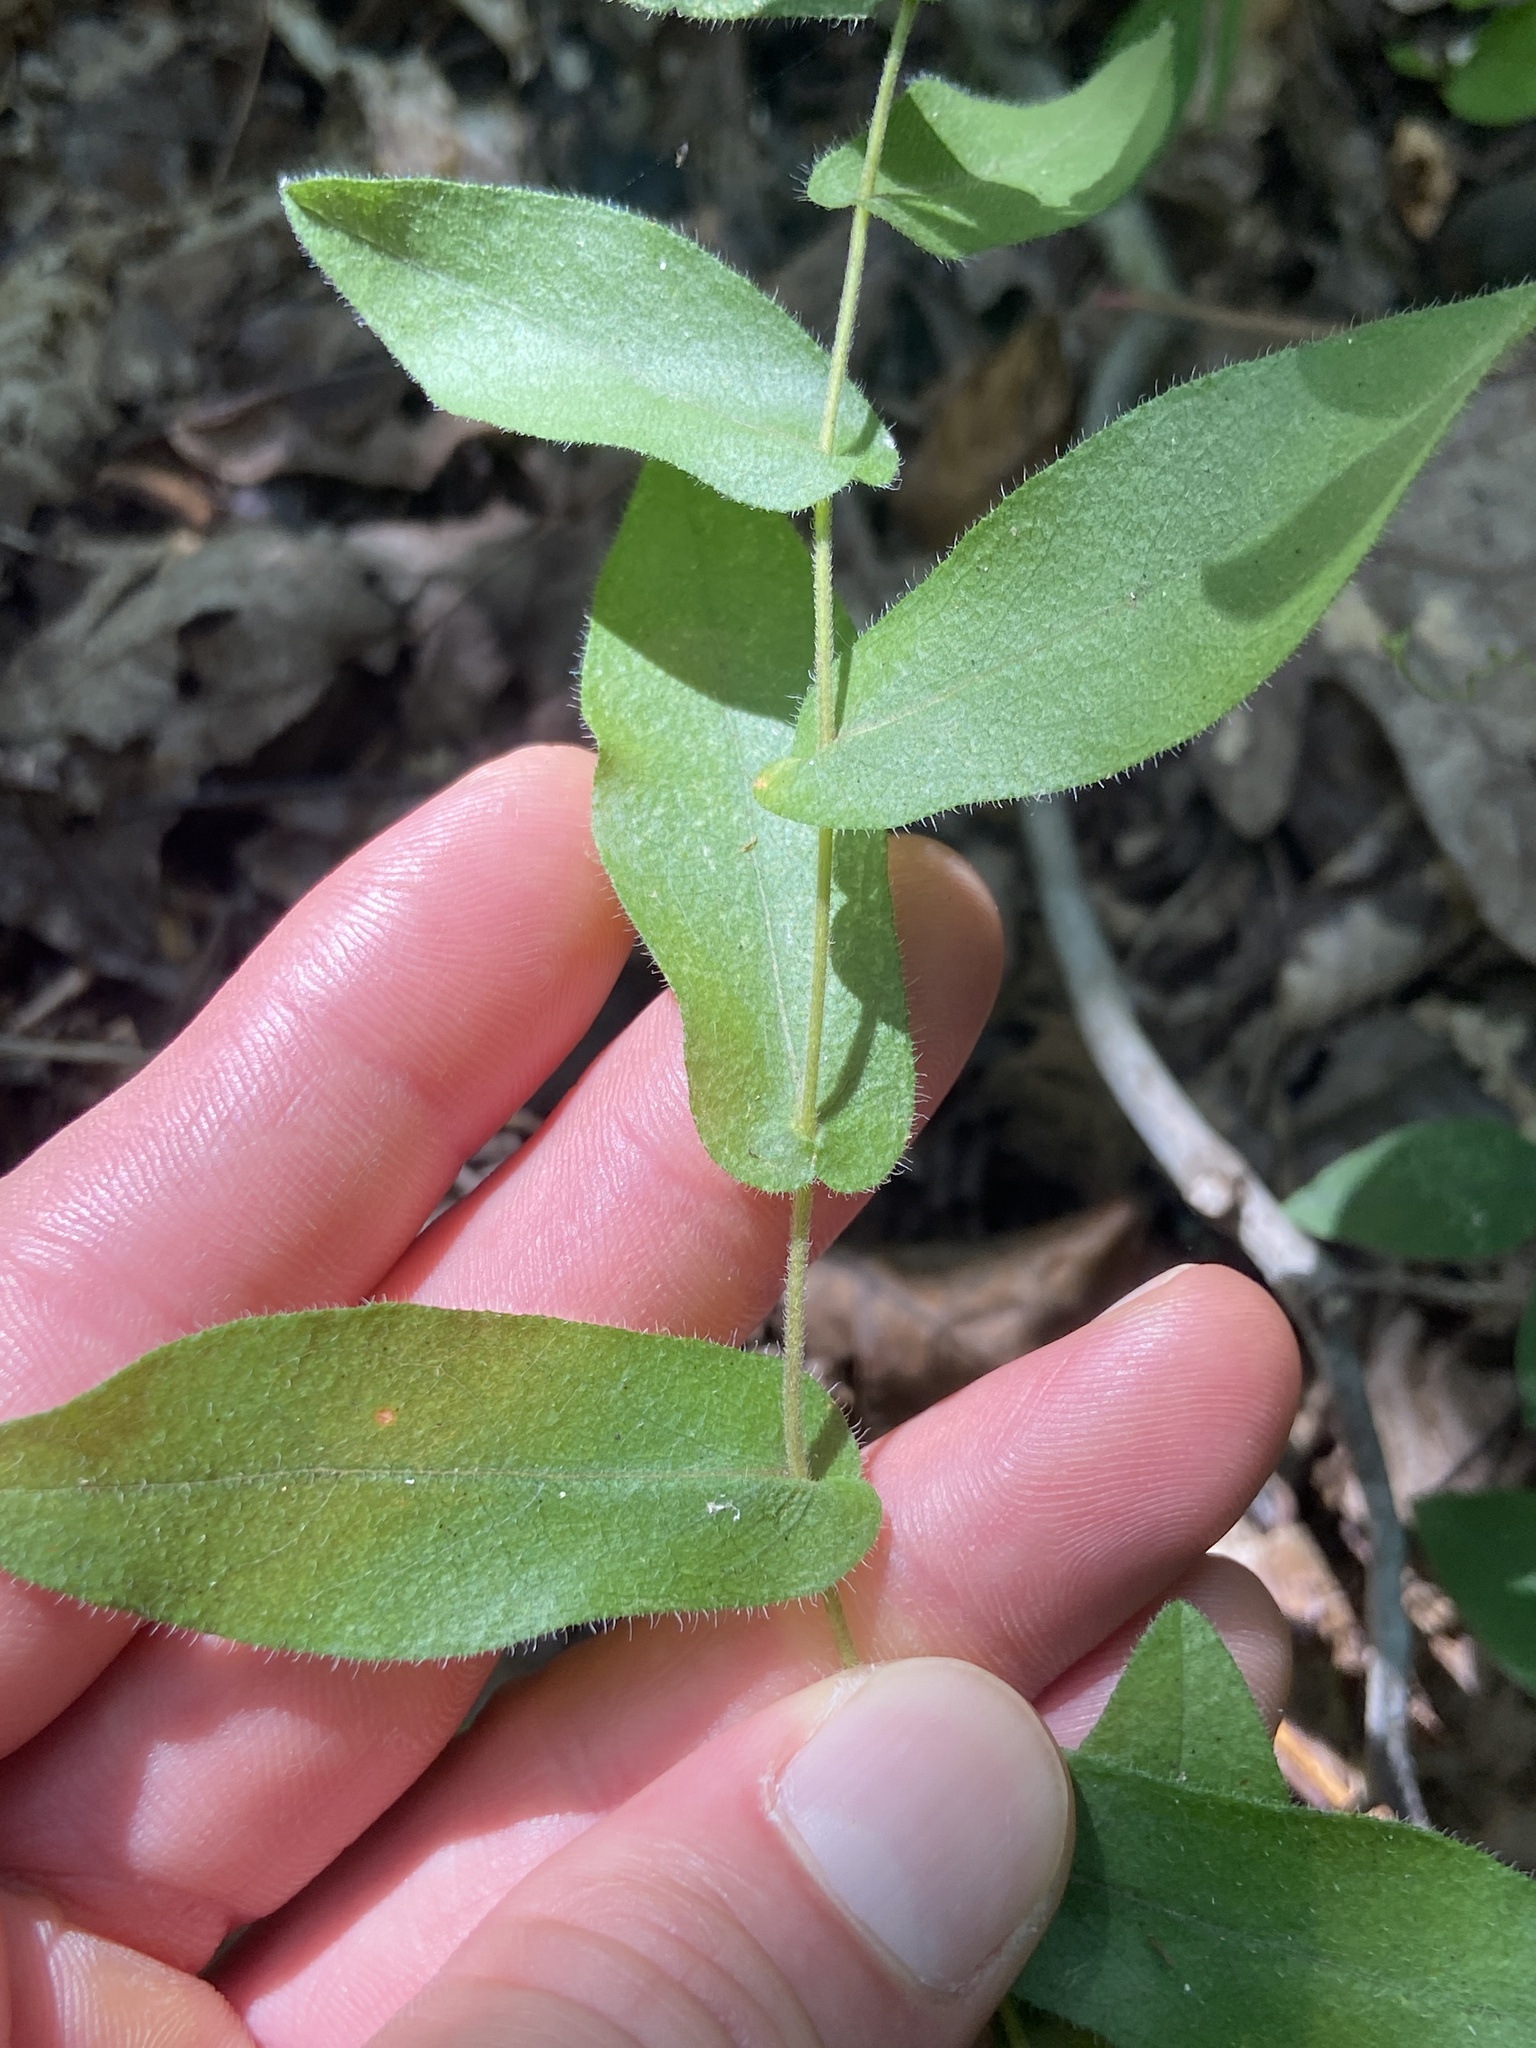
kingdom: Plantae
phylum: Tracheophyta
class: Magnoliopsida
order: Asterales
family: Asteraceae
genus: Symphyotrichum
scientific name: Symphyotrichum patens
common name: Late purple aster
